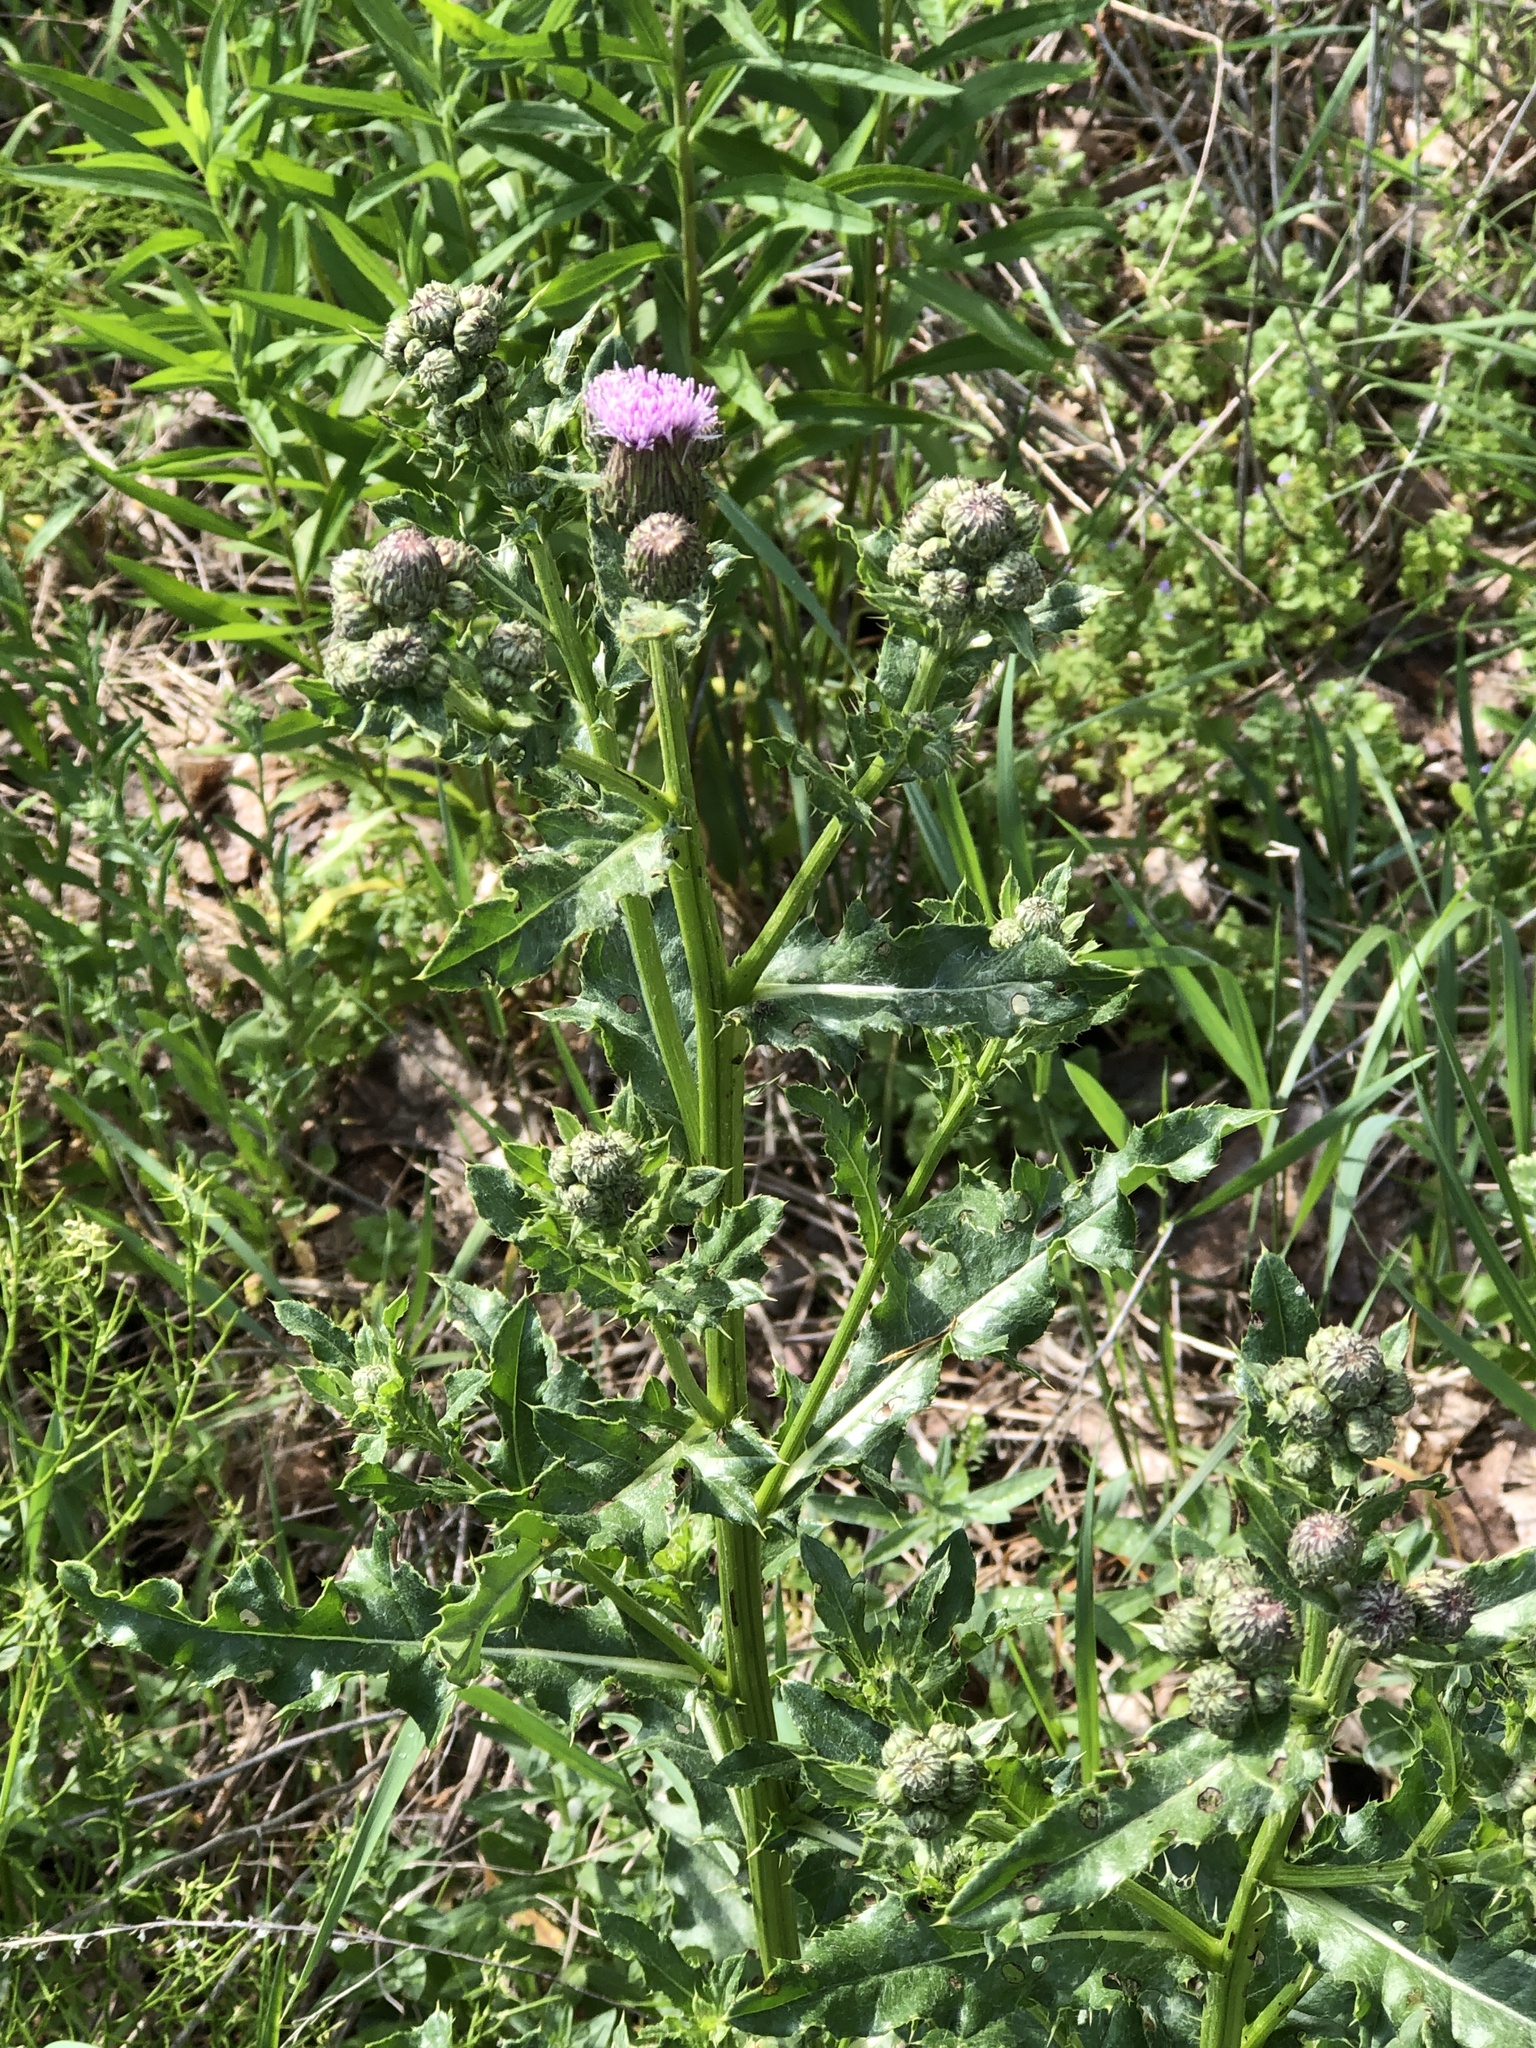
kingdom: Plantae
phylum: Tracheophyta
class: Magnoliopsida
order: Asterales
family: Asteraceae
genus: Cirsium
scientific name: Cirsium arvense
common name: Creeping thistle
